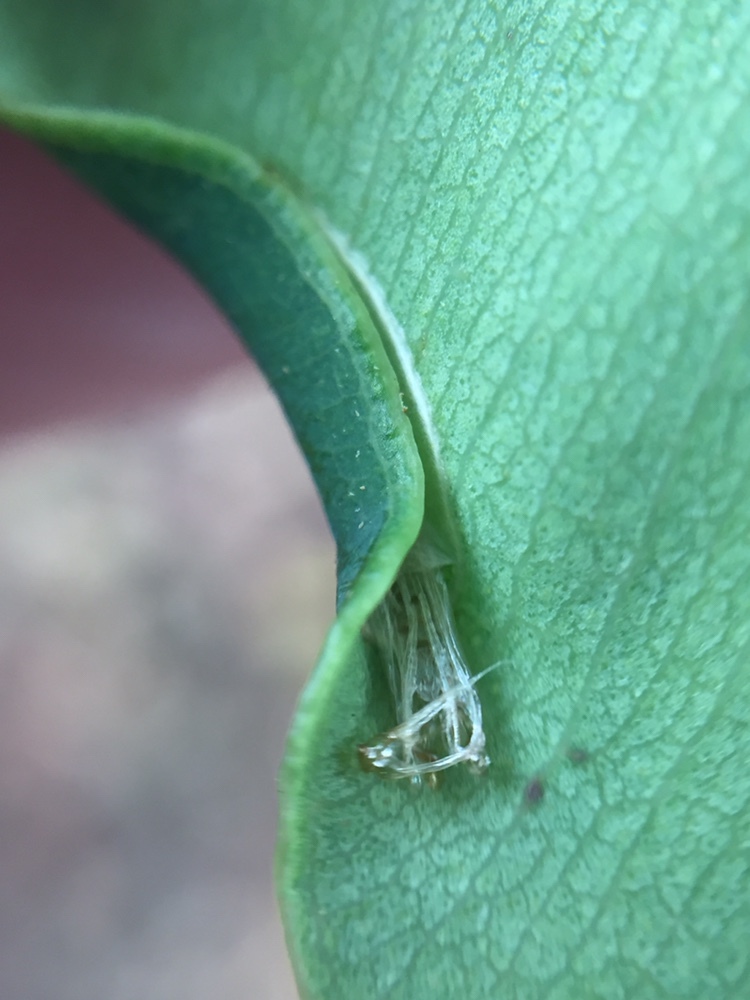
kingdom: Animalia
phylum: Arthropoda
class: Insecta
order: Lepidoptera
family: Gracillariidae
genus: Macarostola
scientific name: Macarostola ida
